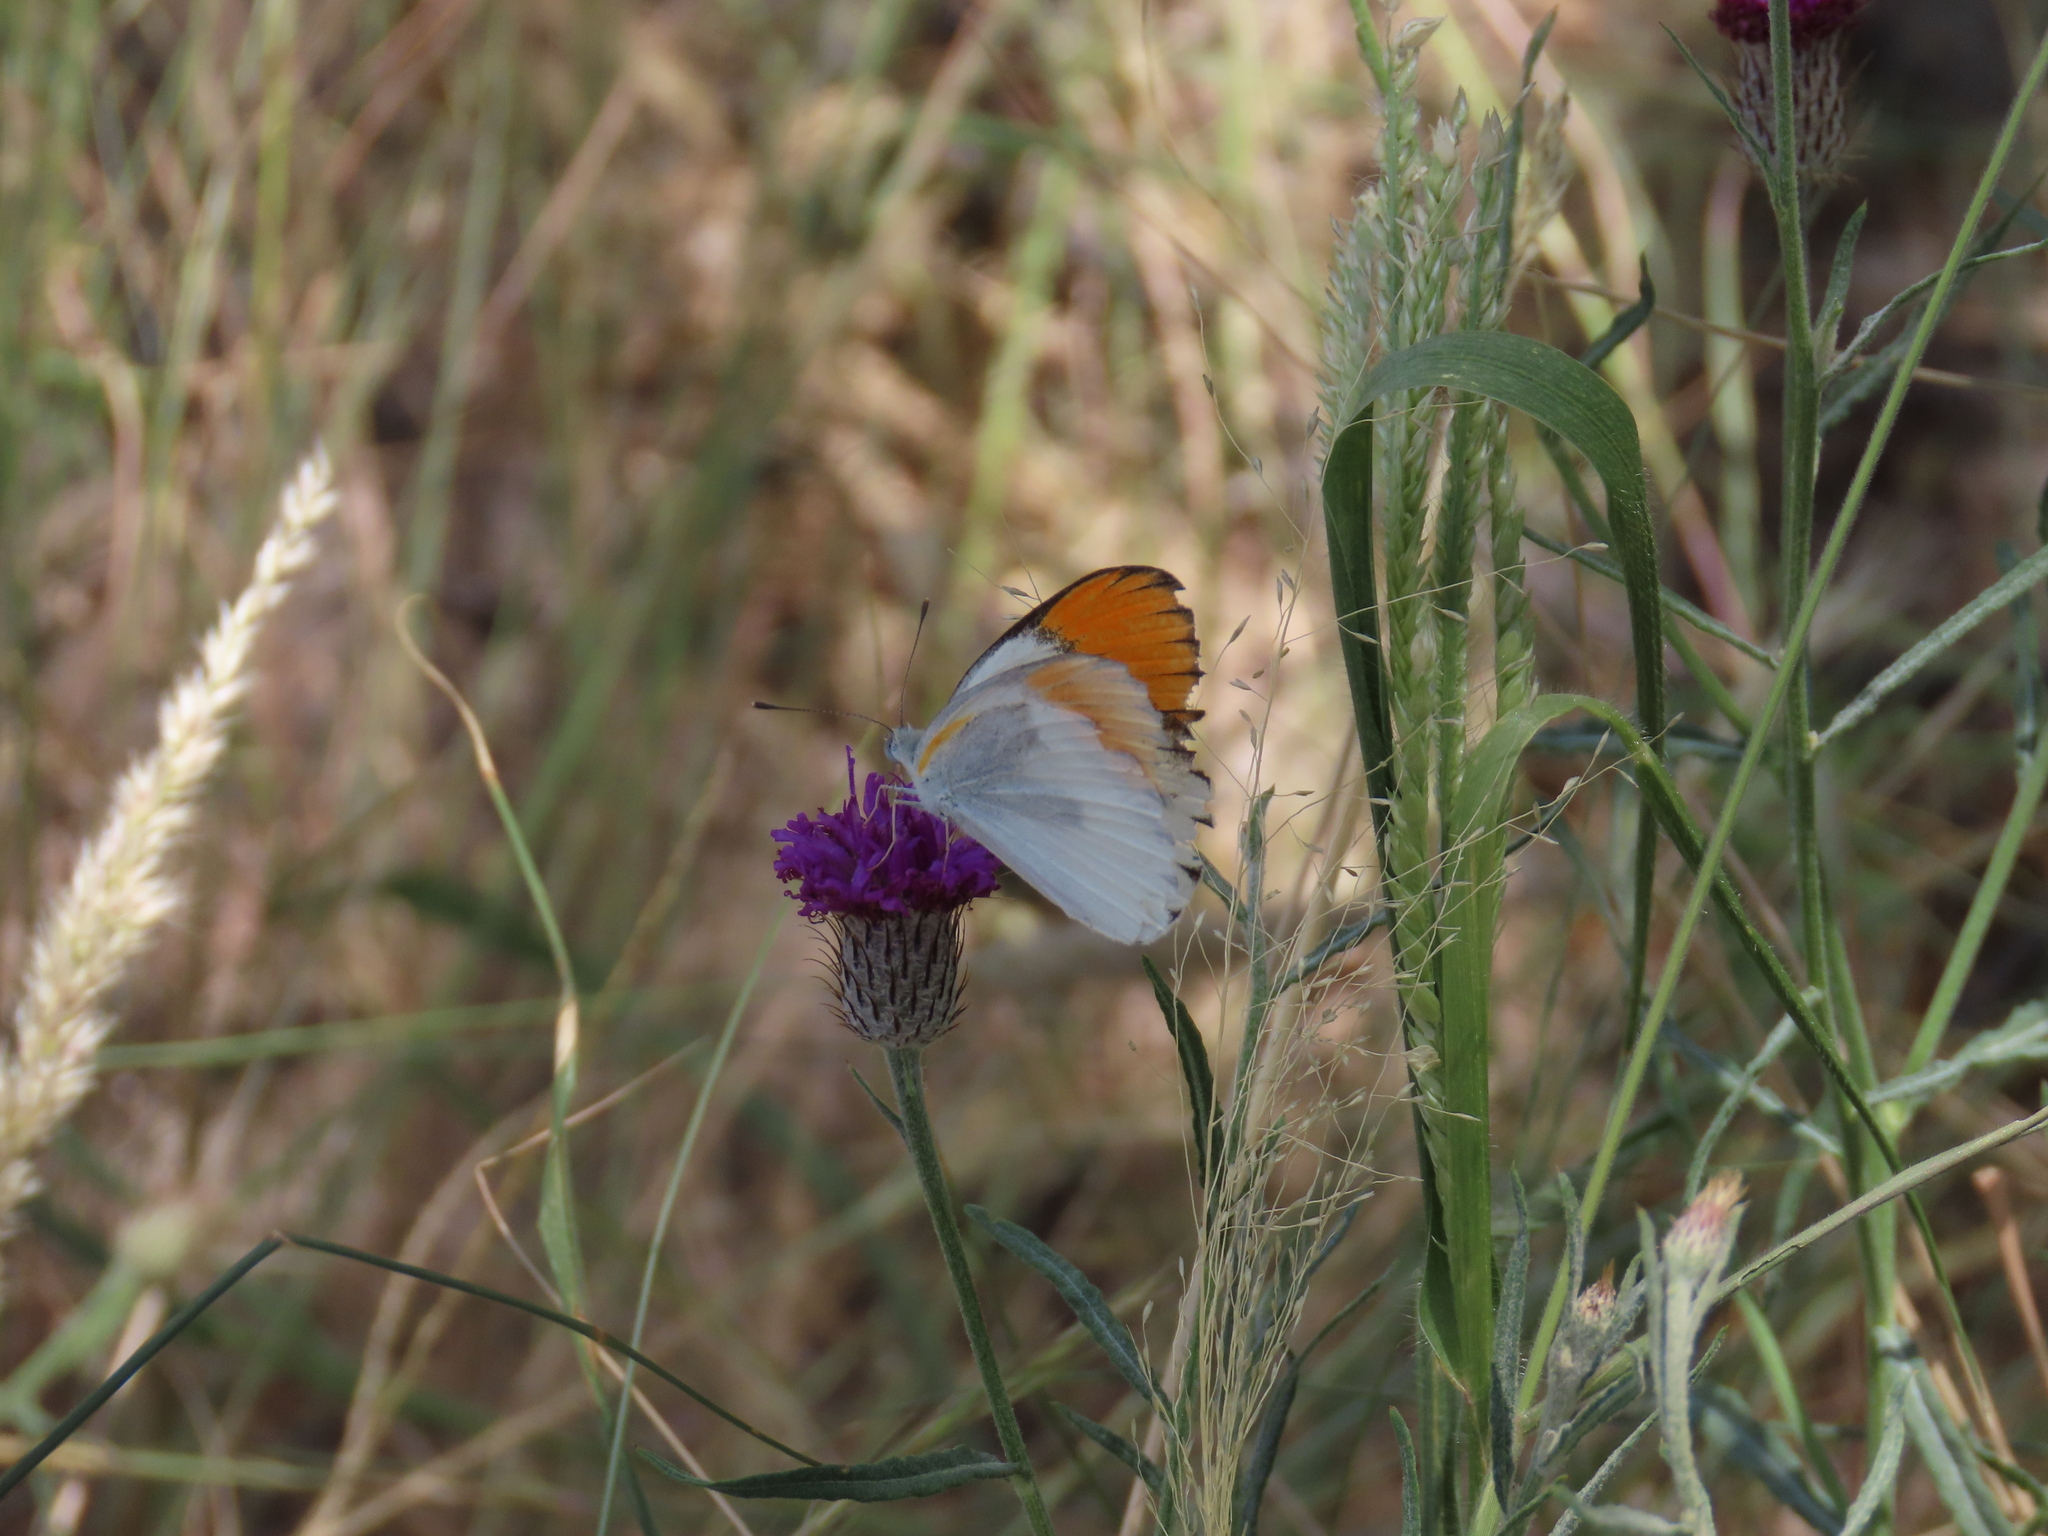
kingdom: Animalia
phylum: Arthropoda
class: Insecta
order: Lepidoptera
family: Pieridae
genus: Colotis
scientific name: Colotis evenina
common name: Common orange tip
